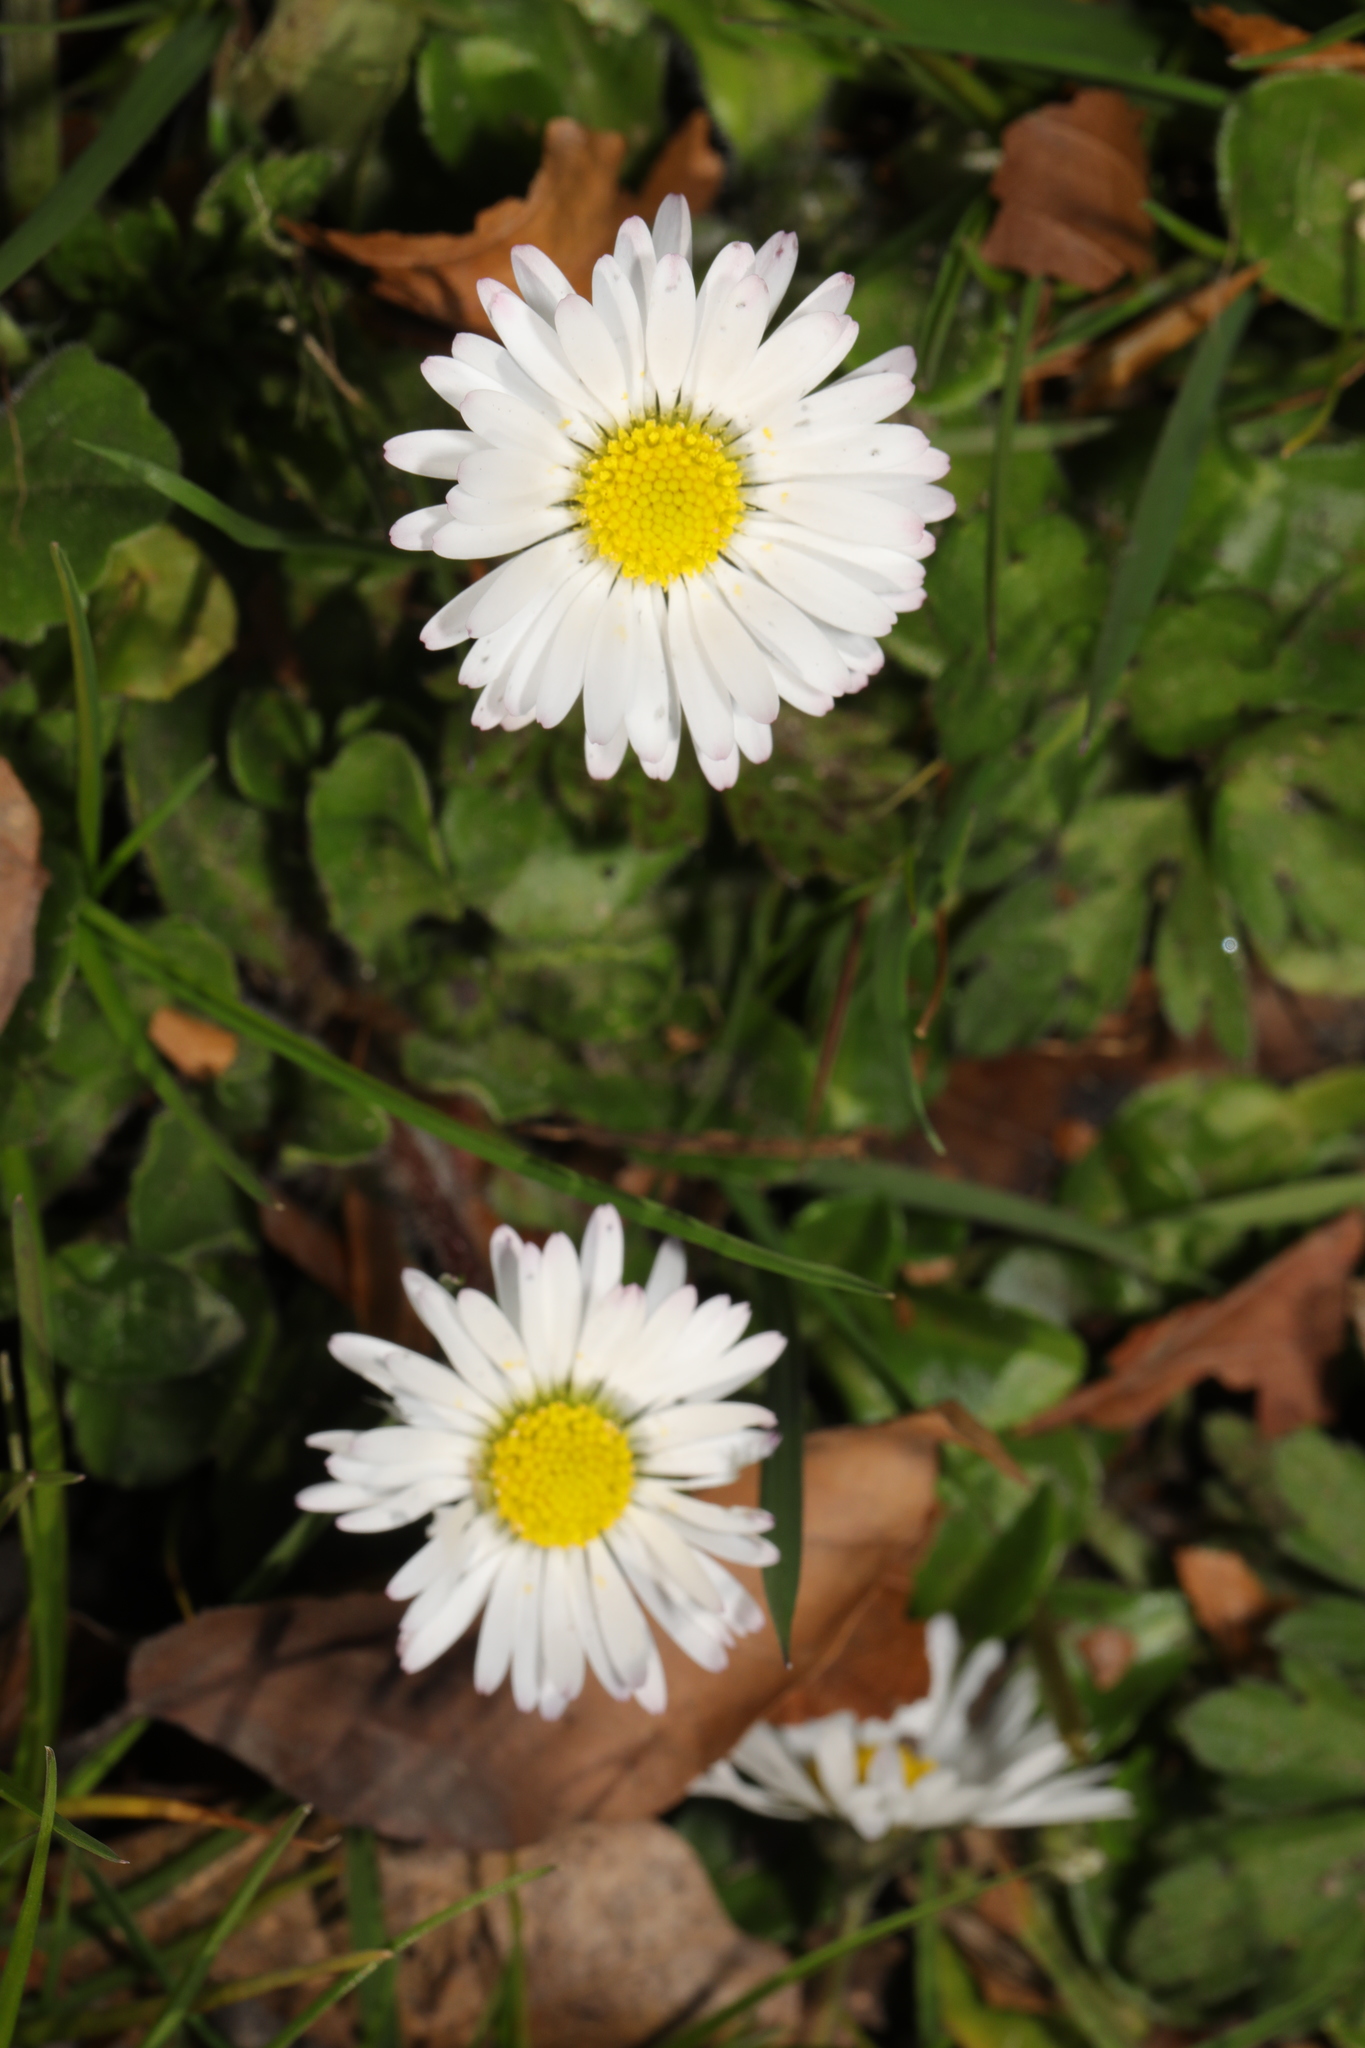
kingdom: Plantae
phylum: Tracheophyta
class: Magnoliopsida
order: Asterales
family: Asteraceae
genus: Bellis
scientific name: Bellis perennis
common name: Lawndaisy
